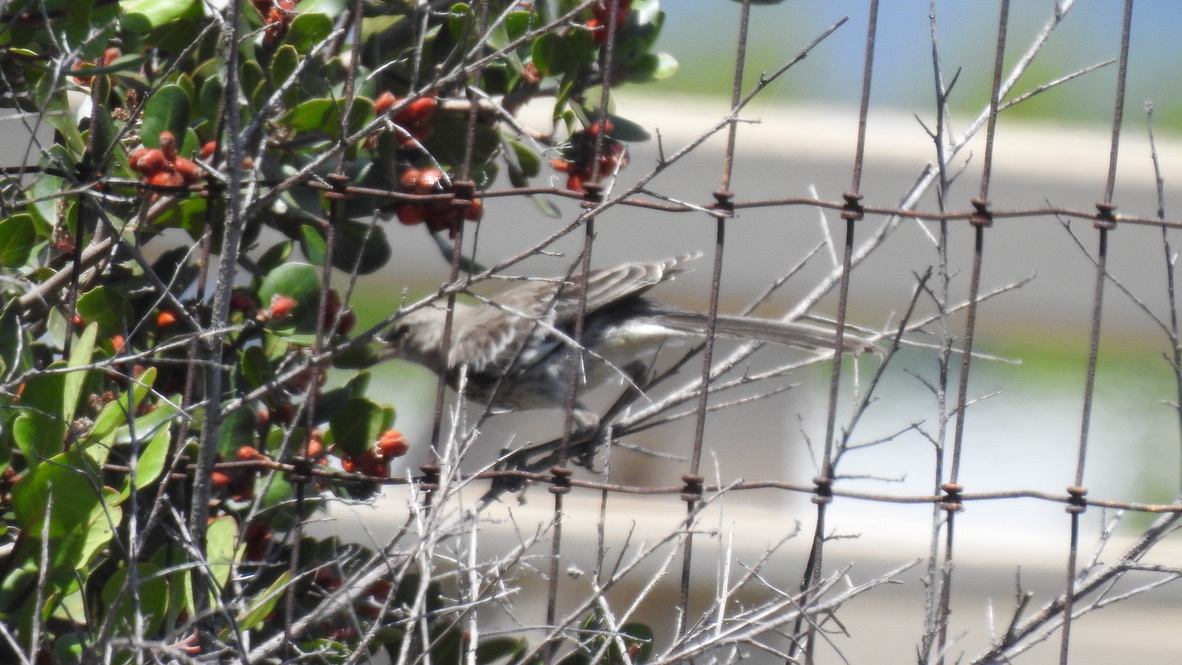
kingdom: Animalia
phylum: Chordata
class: Aves
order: Passeriformes
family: Mimidae
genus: Mimus
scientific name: Mimus polyglottos
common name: Northern mockingbird
